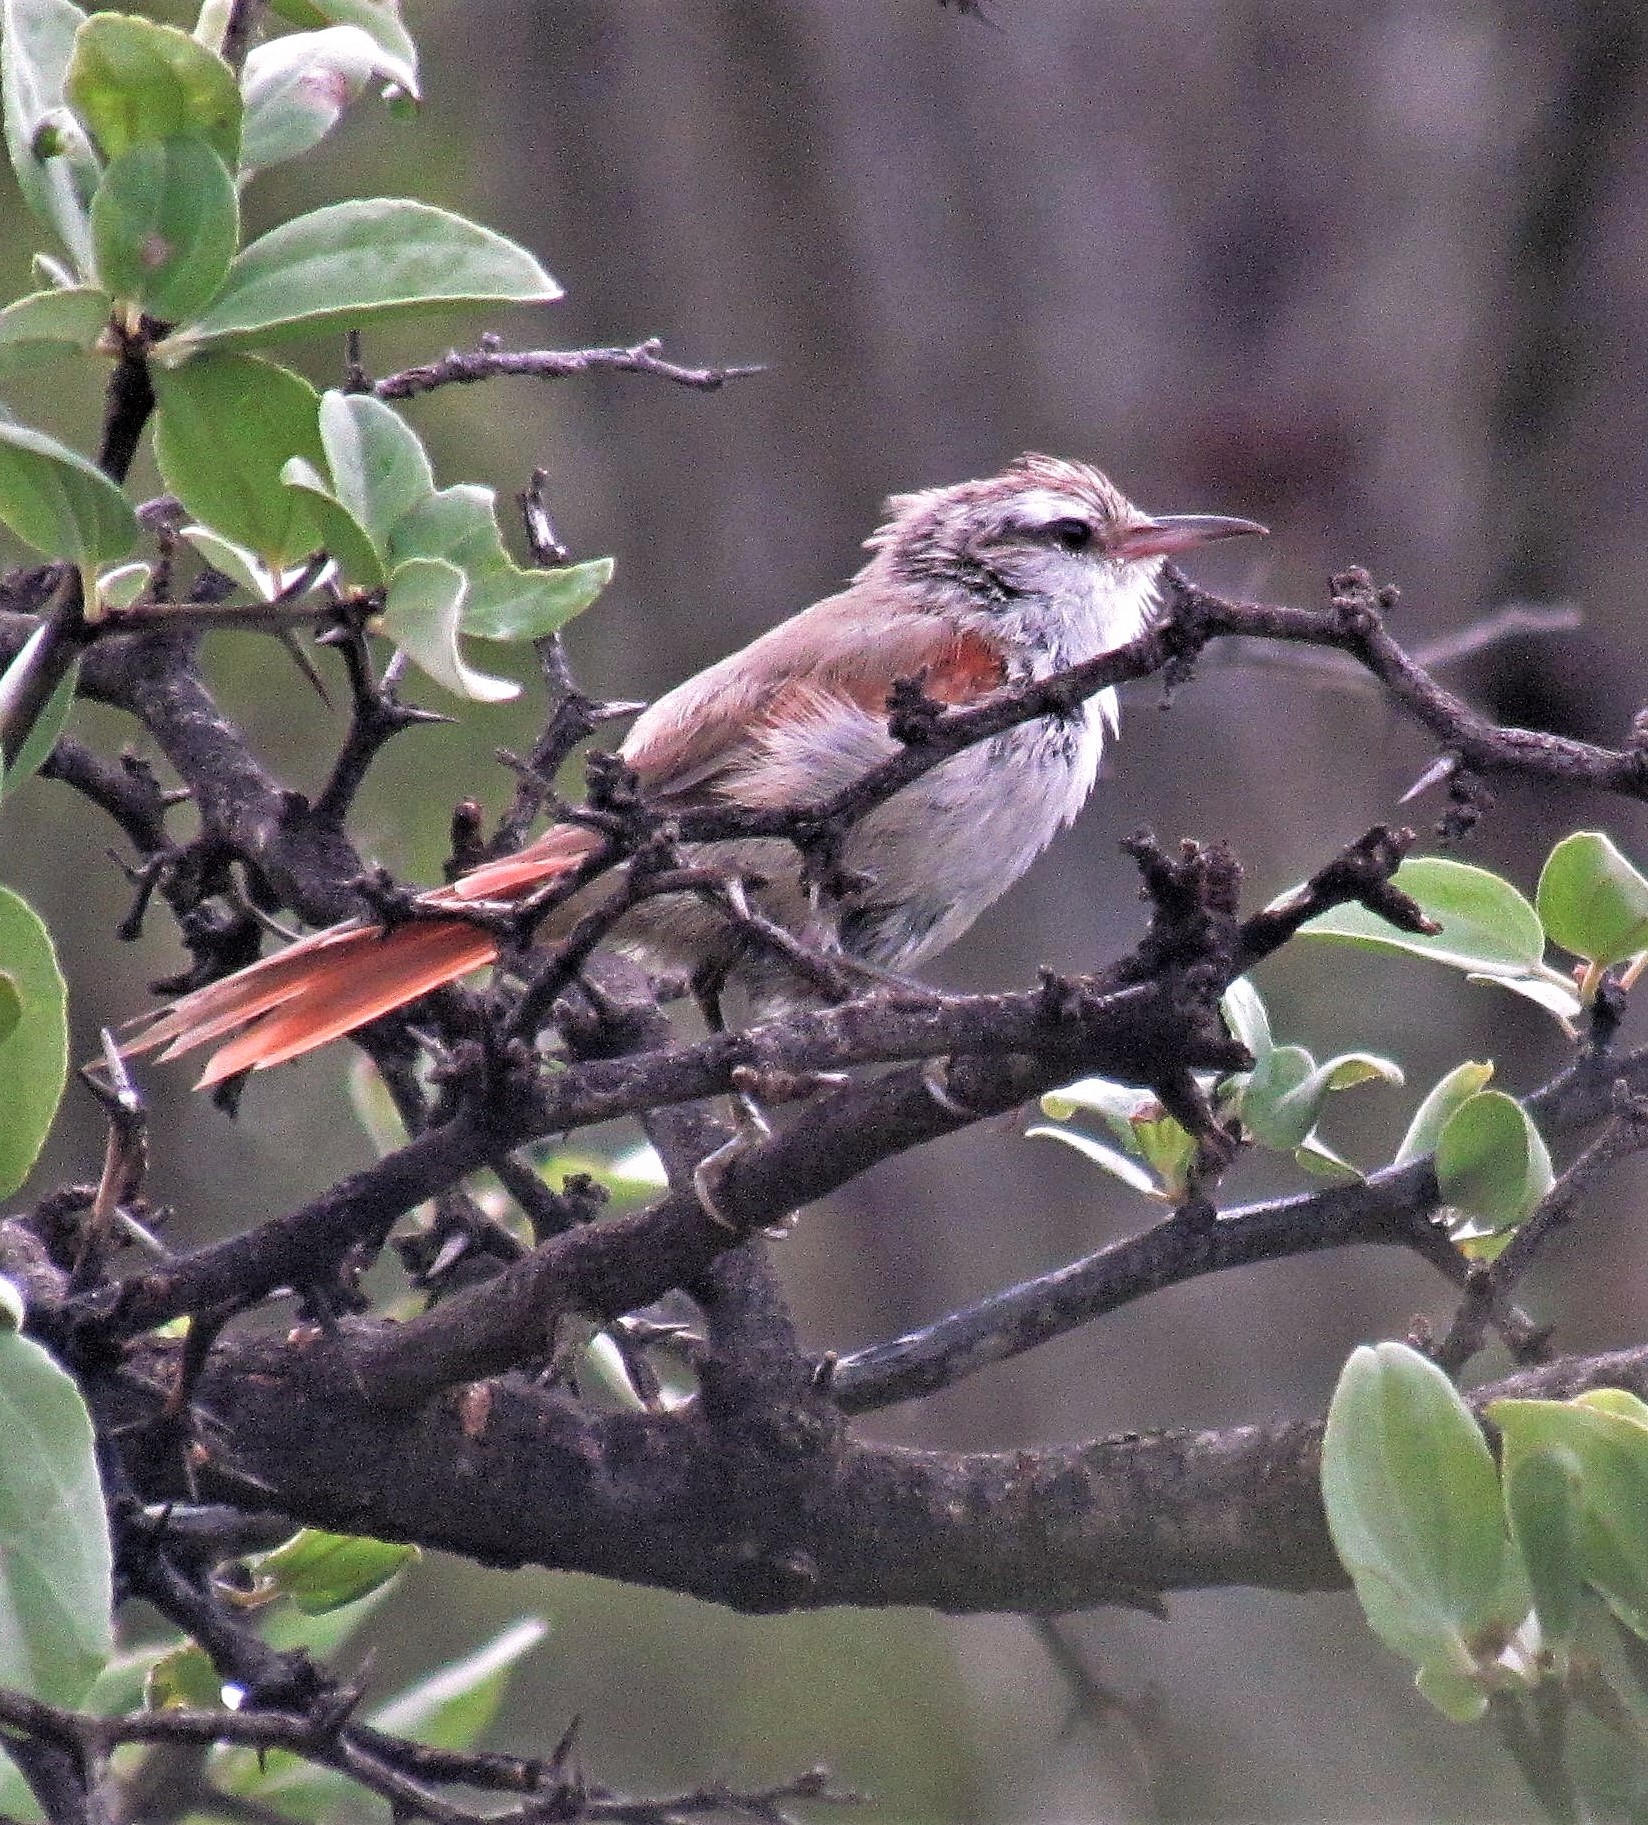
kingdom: Animalia
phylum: Chordata
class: Aves
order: Passeriformes
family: Furnariidae
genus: Cranioleuca
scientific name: Cranioleuca pyrrhophia
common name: Stripe-crowned spinetail
